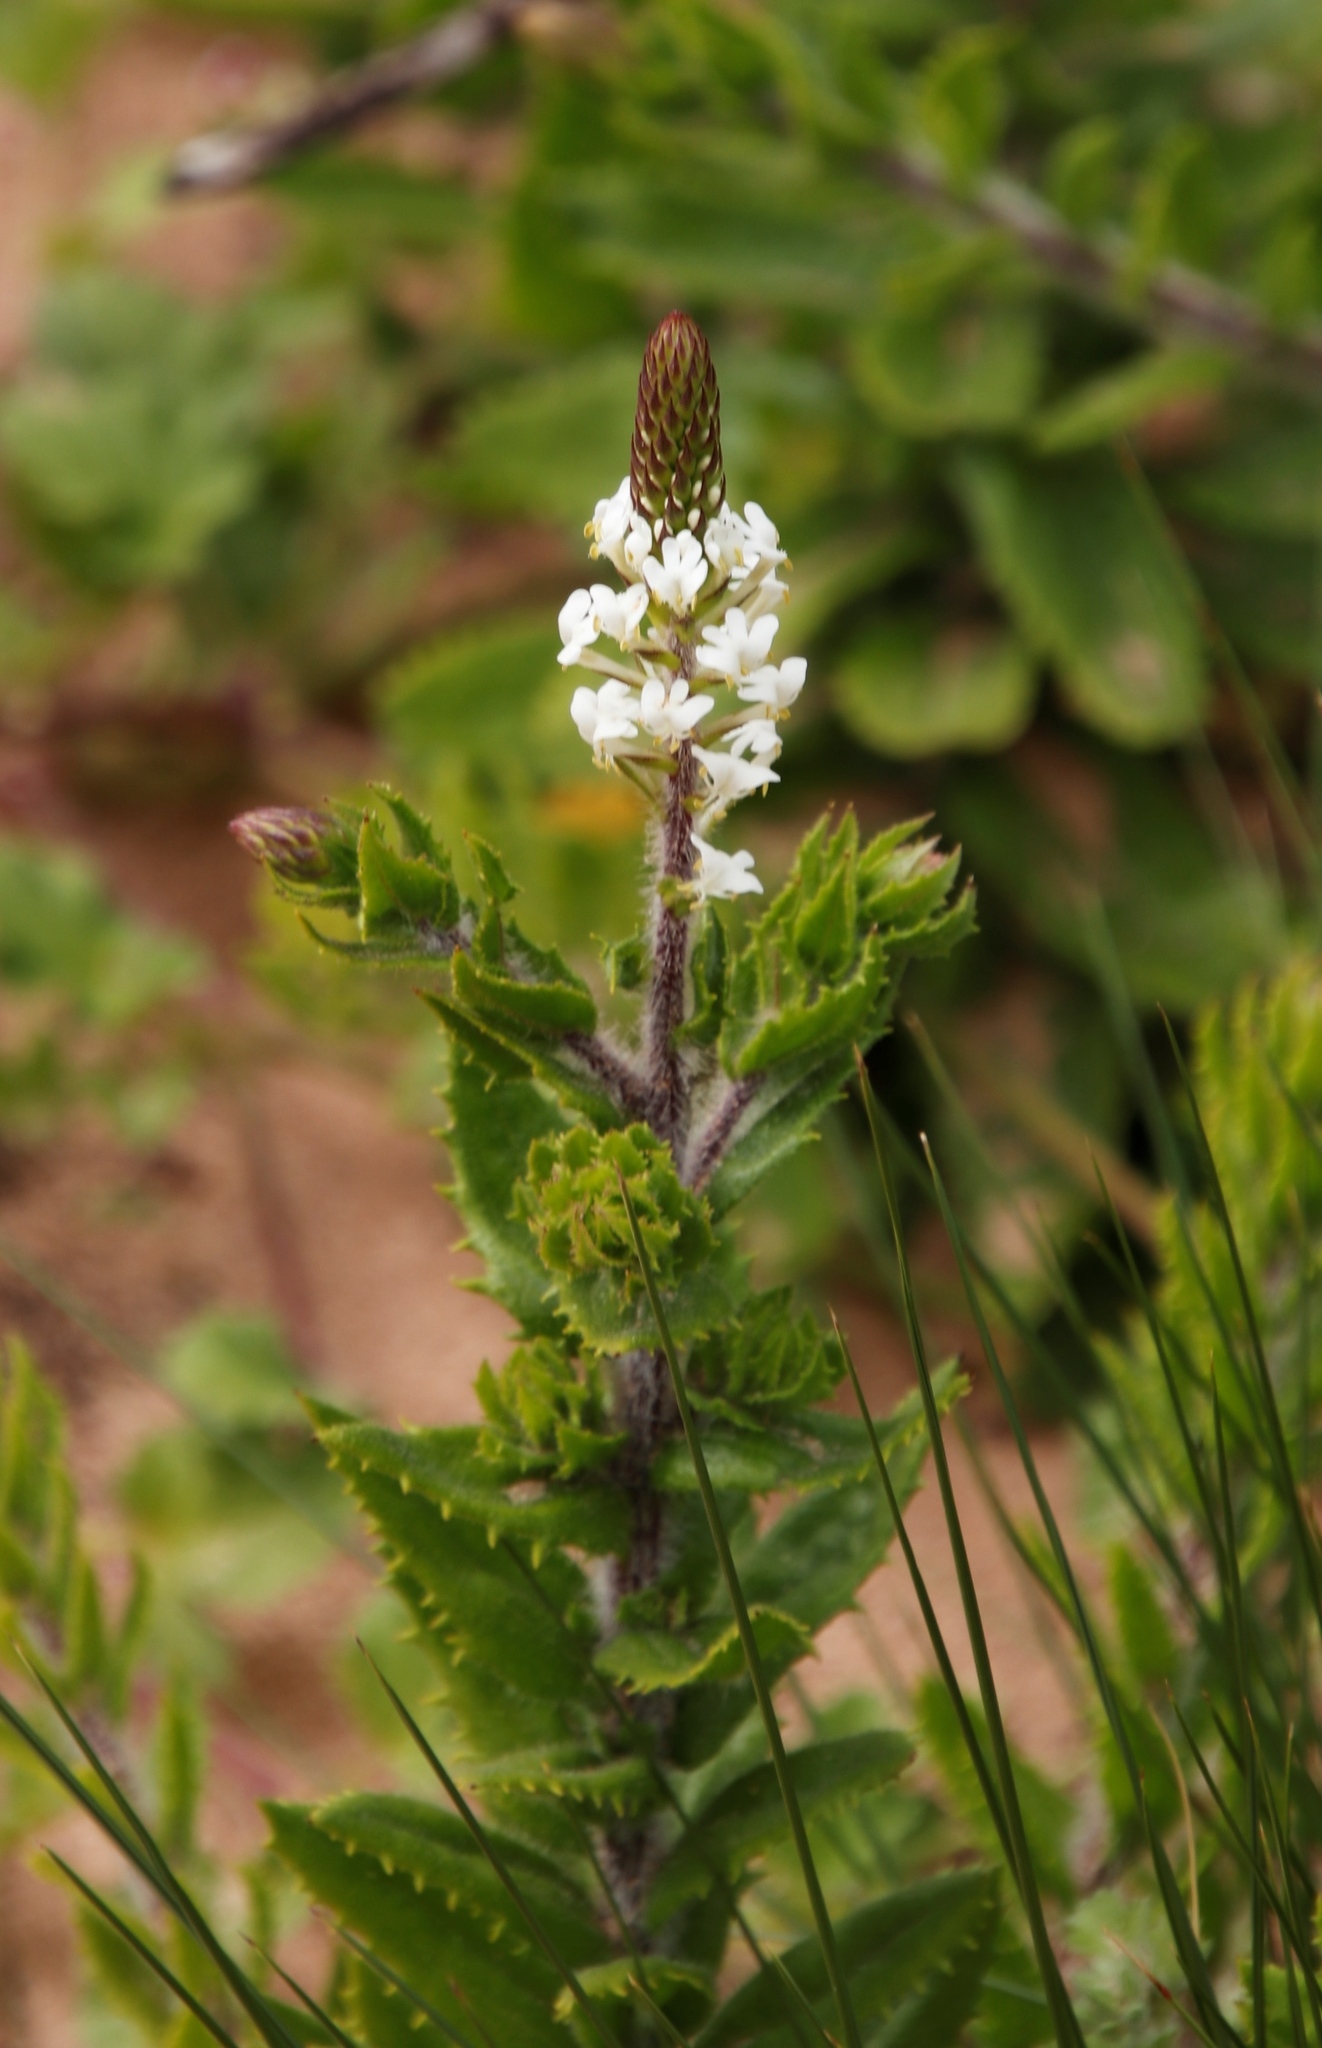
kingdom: Plantae
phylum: Tracheophyta
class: Magnoliopsida
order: Lamiales
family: Scrophulariaceae
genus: Hebenstretia
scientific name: Hebenstretia lanceolata
